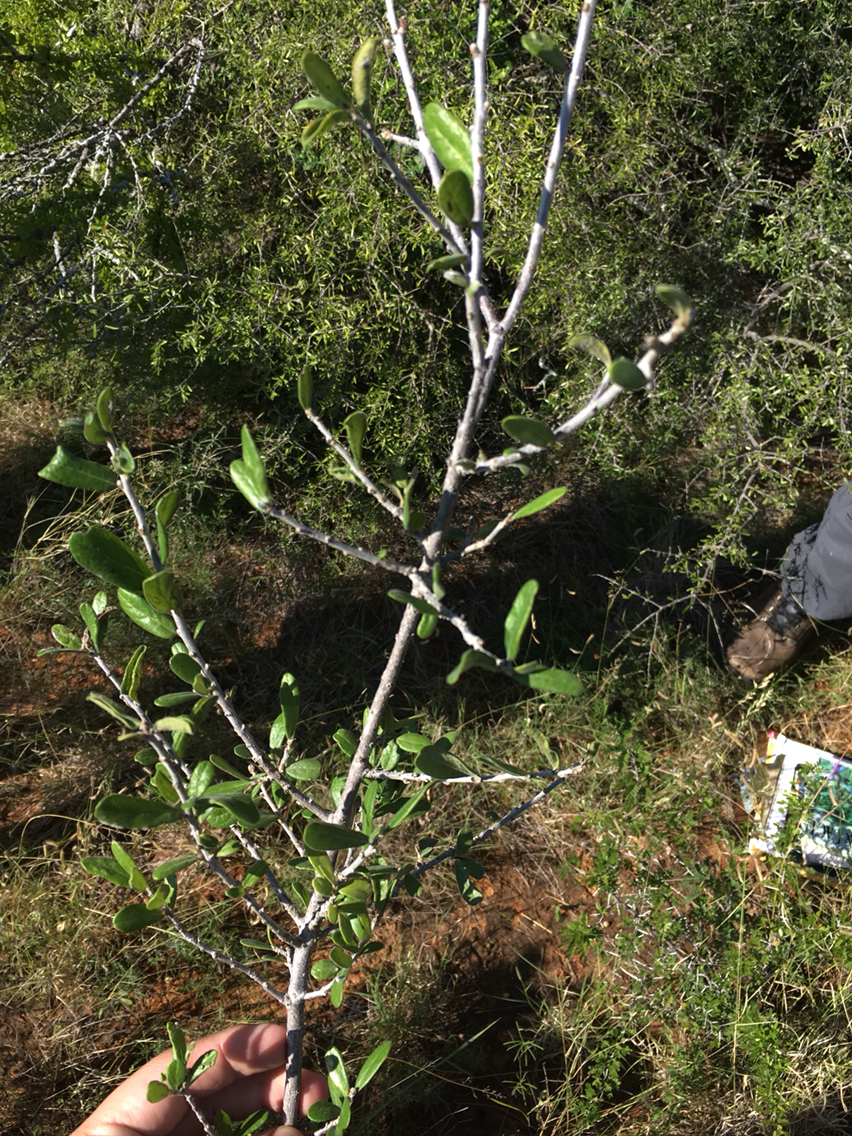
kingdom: Plantae
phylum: Tracheophyta
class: Magnoliopsida
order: Ericales
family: Ebenaceae
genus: Diospyros
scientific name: Diospyros texana
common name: Texas persimmon
